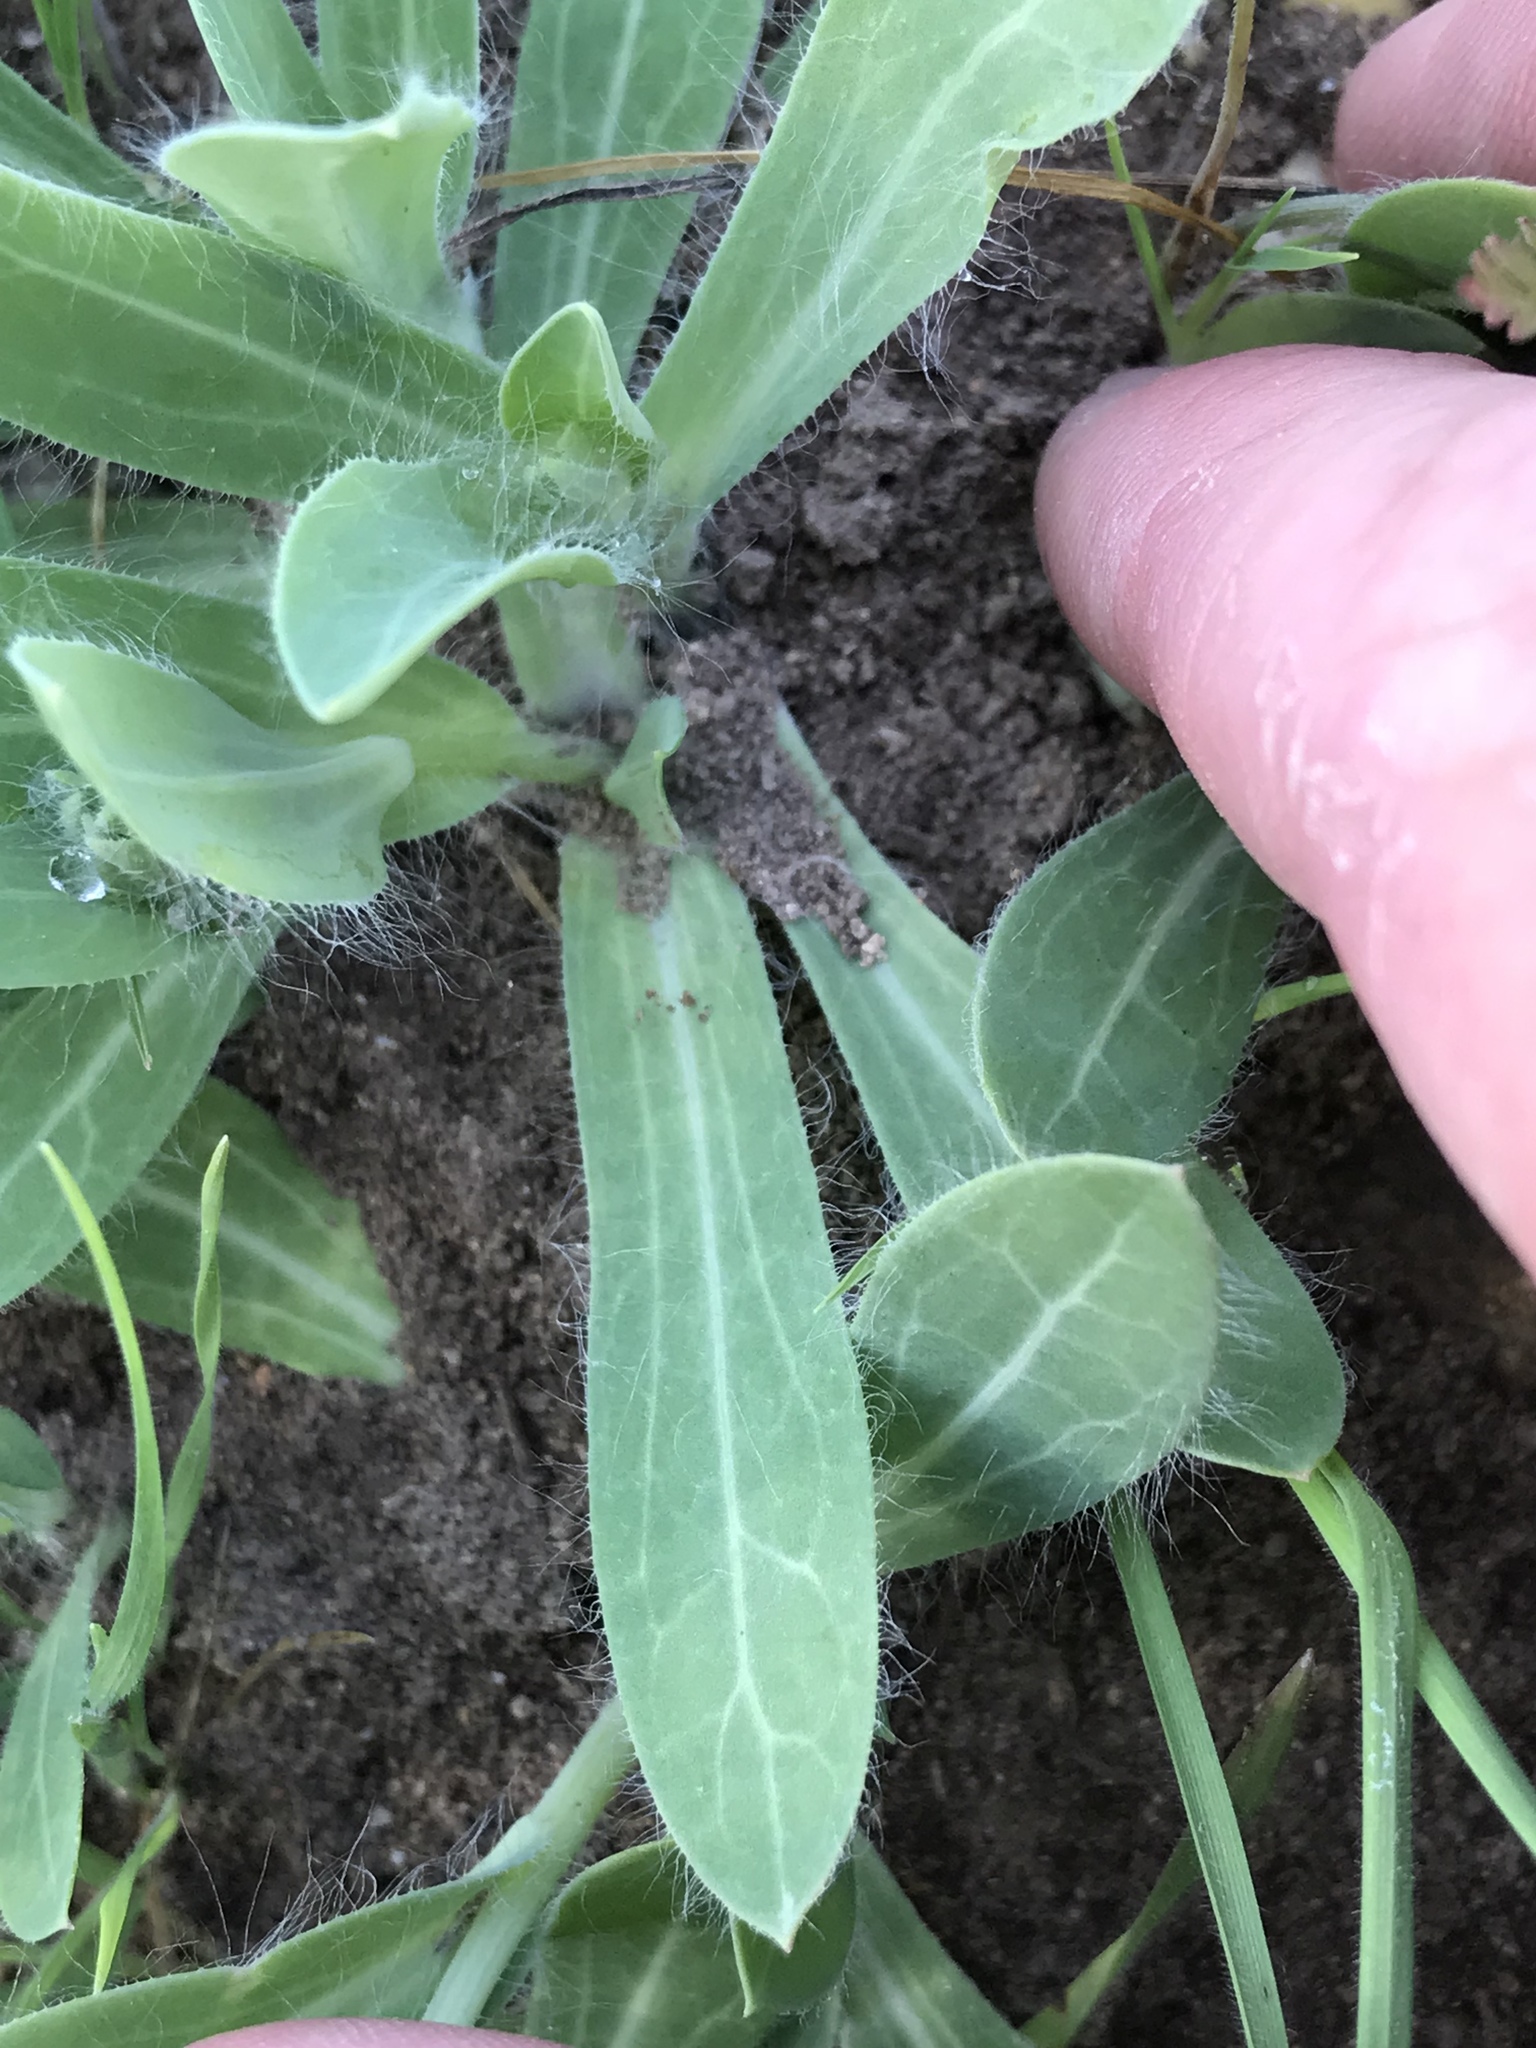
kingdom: Plantae
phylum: Tracheophyta
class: Magnoliopsida
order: Asterales
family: Asteraceae
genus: Amblyolepis
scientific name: Amblyolepis setigera
